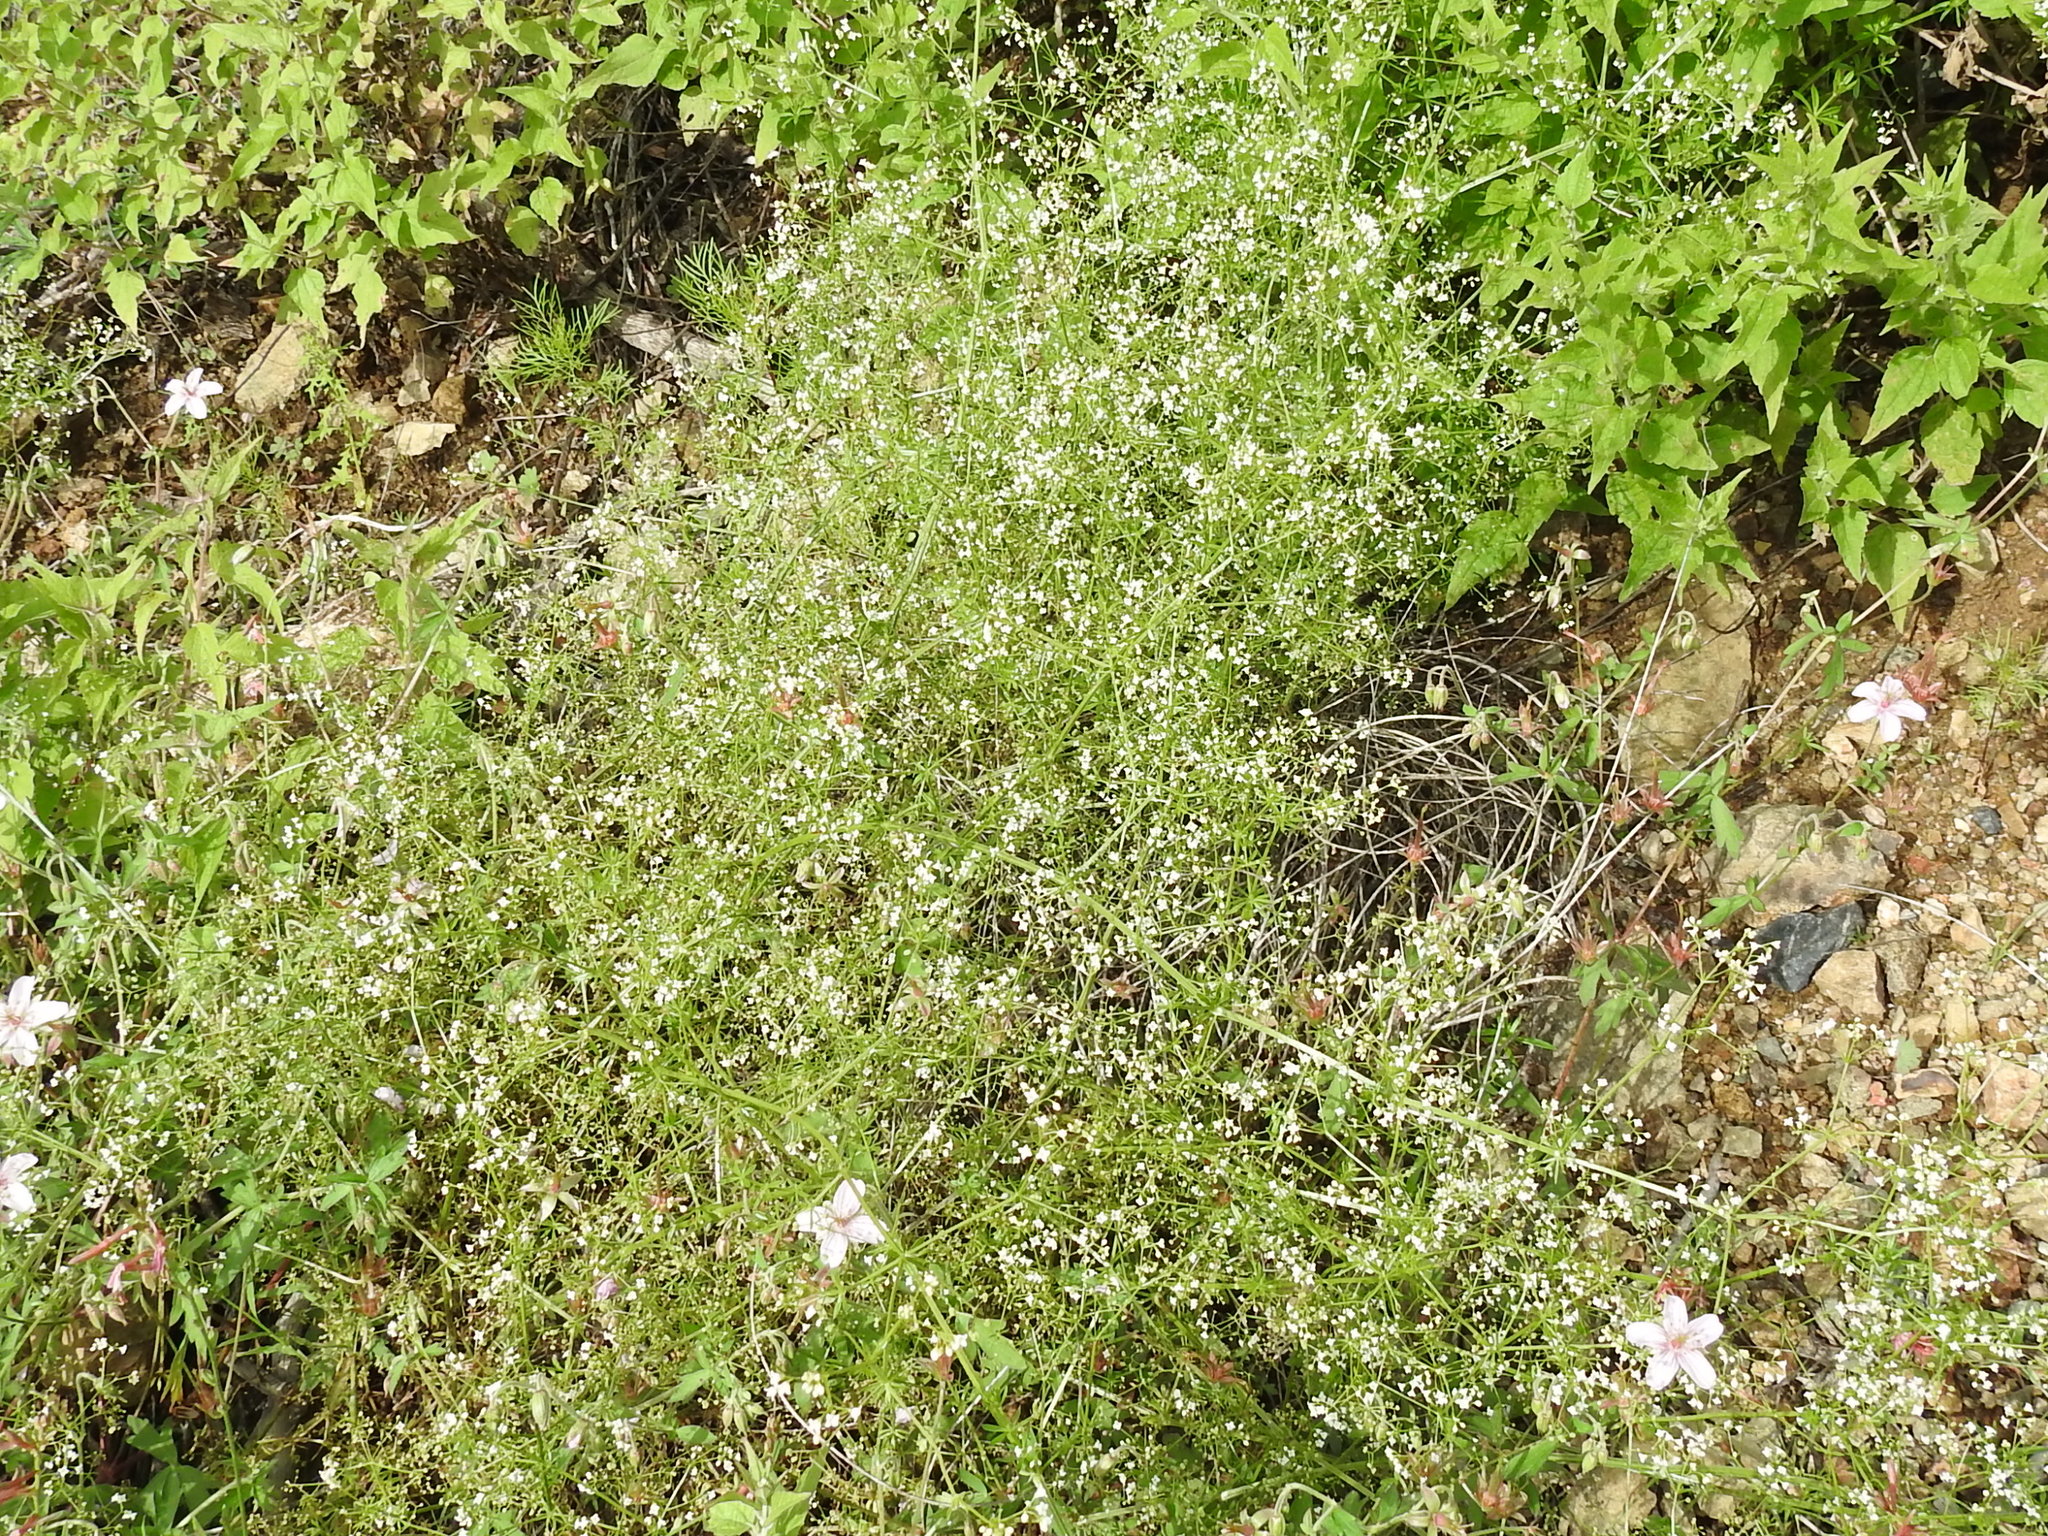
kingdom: Plantae
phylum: Tracheophyta
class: Magnoliopsida
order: Gentianales
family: Rubiaceae
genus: Galium
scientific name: Galium mexicanum
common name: Mexican bedstraw
